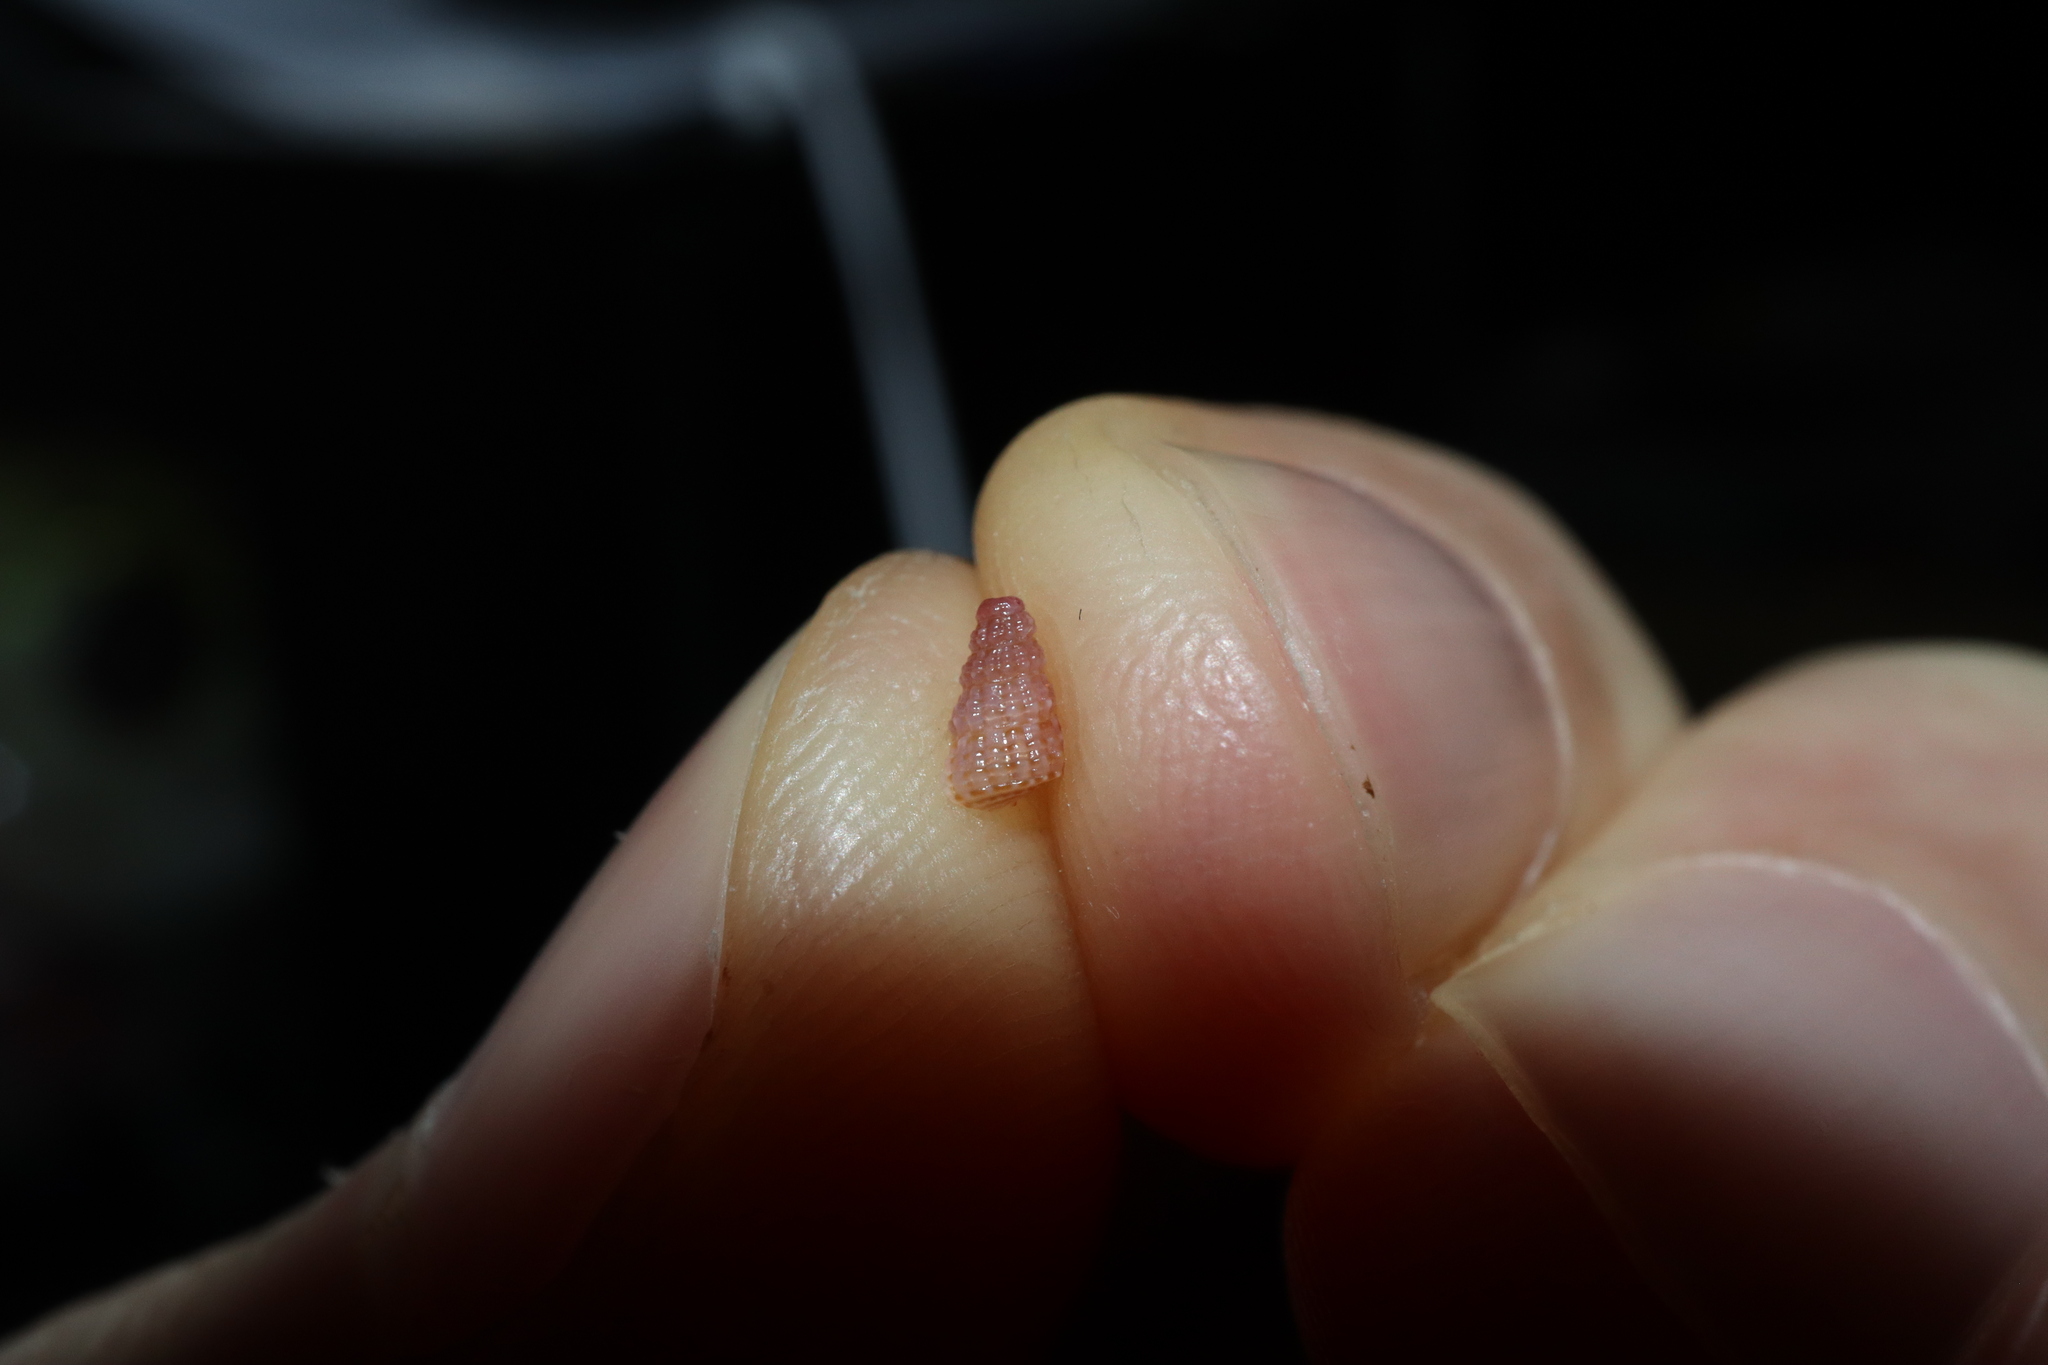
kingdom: Animalia
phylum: Mollusca
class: Gastropoda
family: Newtoniellidae
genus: Ataxocerithium
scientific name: Ataxocerithium serotinum
